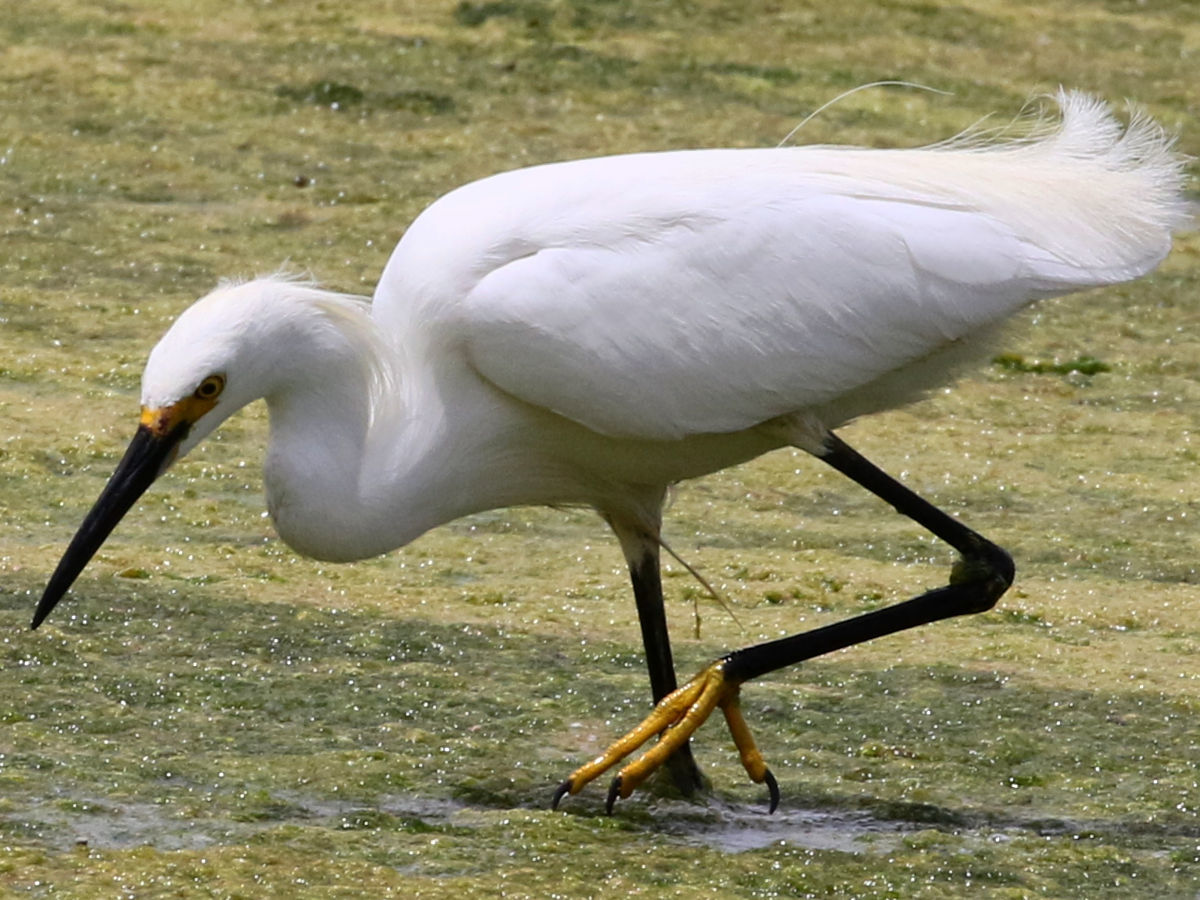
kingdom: Animalia
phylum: Chordata
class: Aves
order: Pelecaniformes
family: Ardeidae
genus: Egretta
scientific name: Egretta thula
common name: Snowy egret
